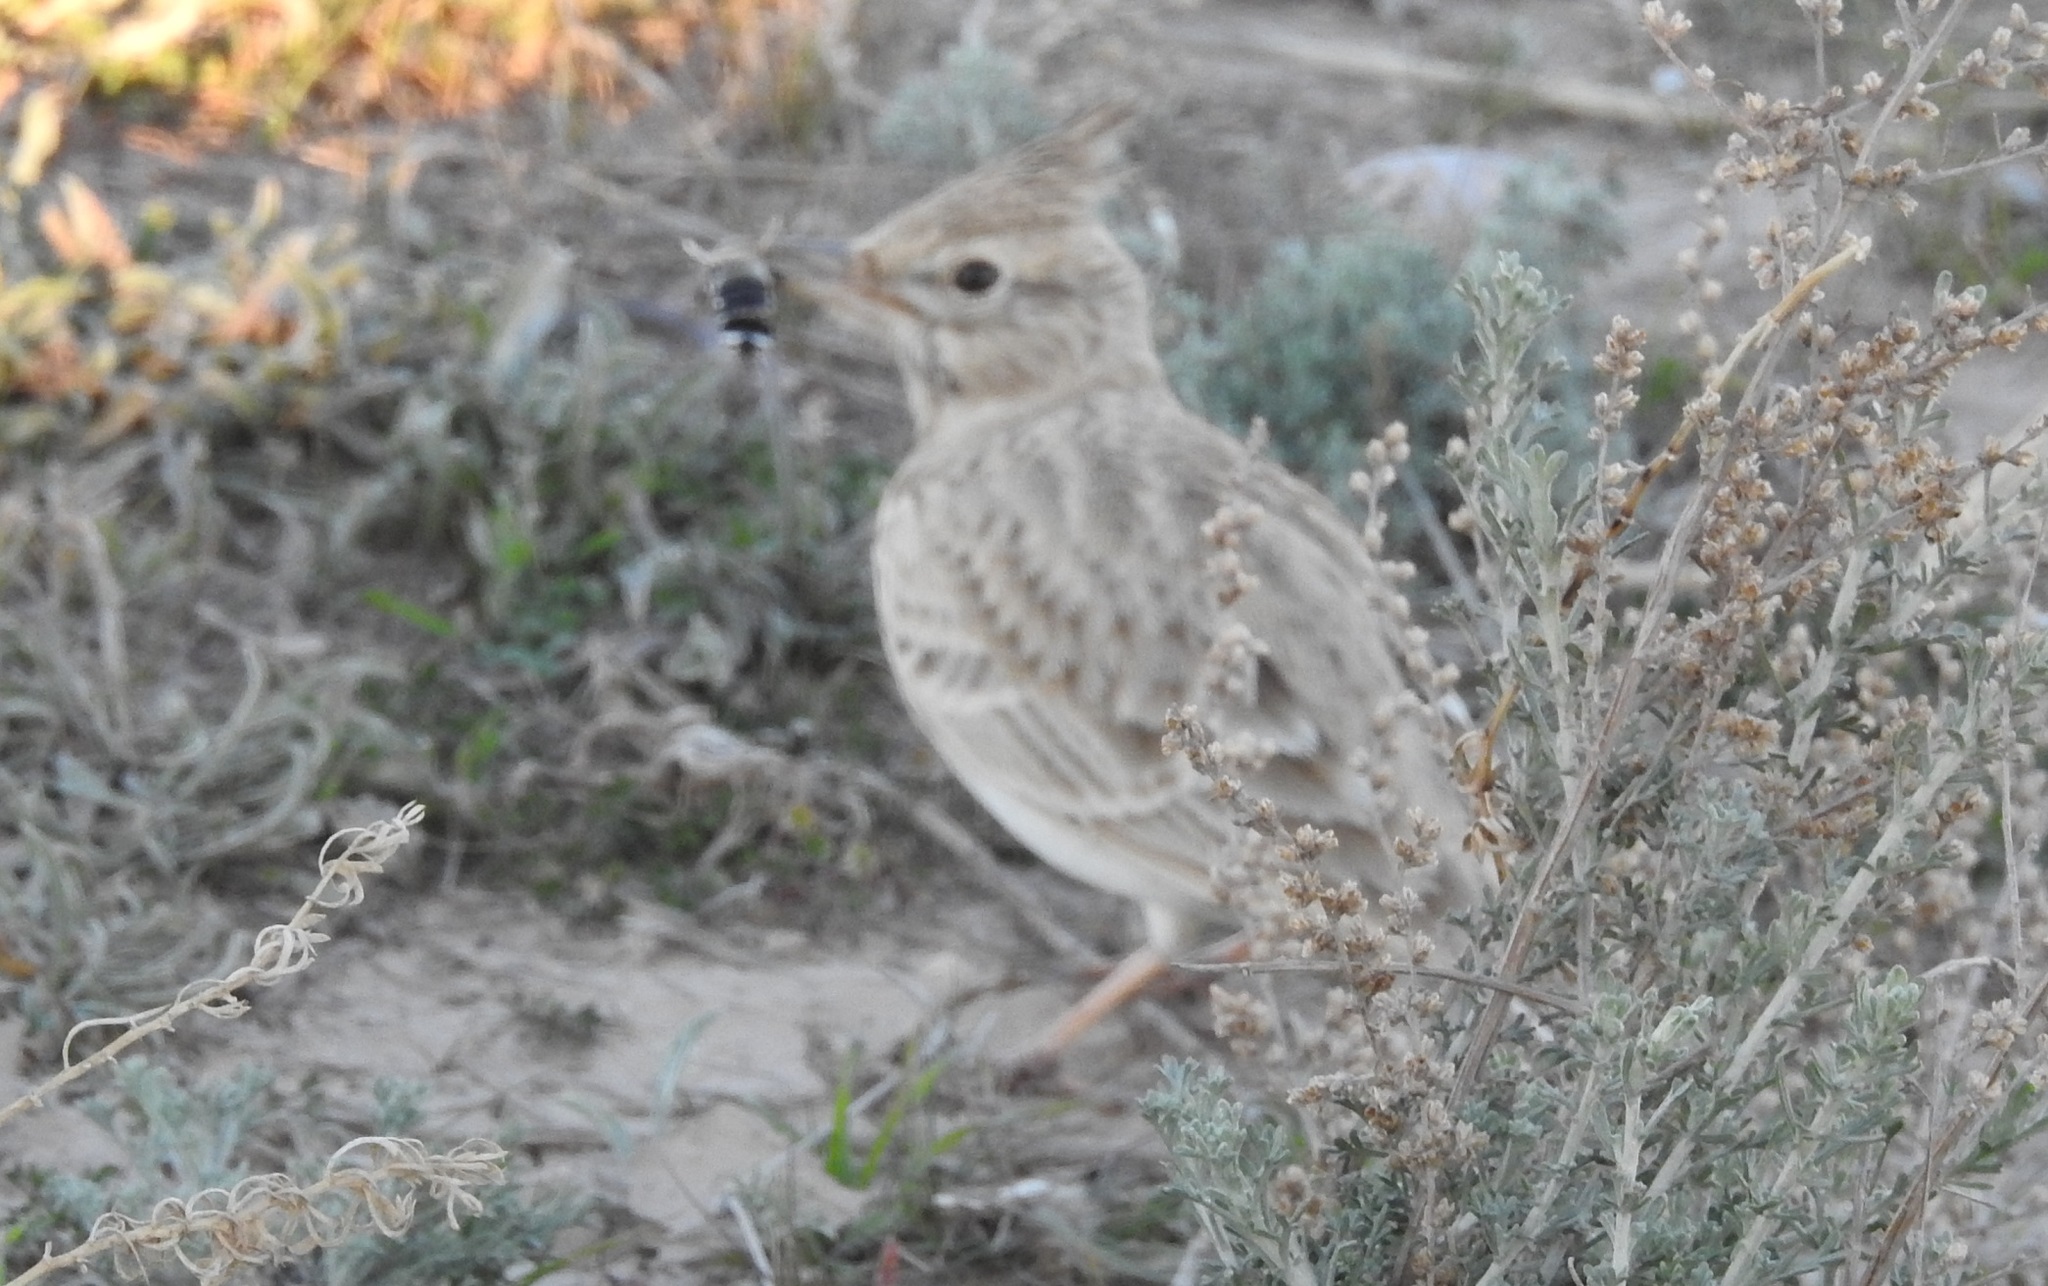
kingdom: Animalia
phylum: Chordata
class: Aves
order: Passeriformes
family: Alaudidae
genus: Galerida
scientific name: Galerida cristata
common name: Crested lark
